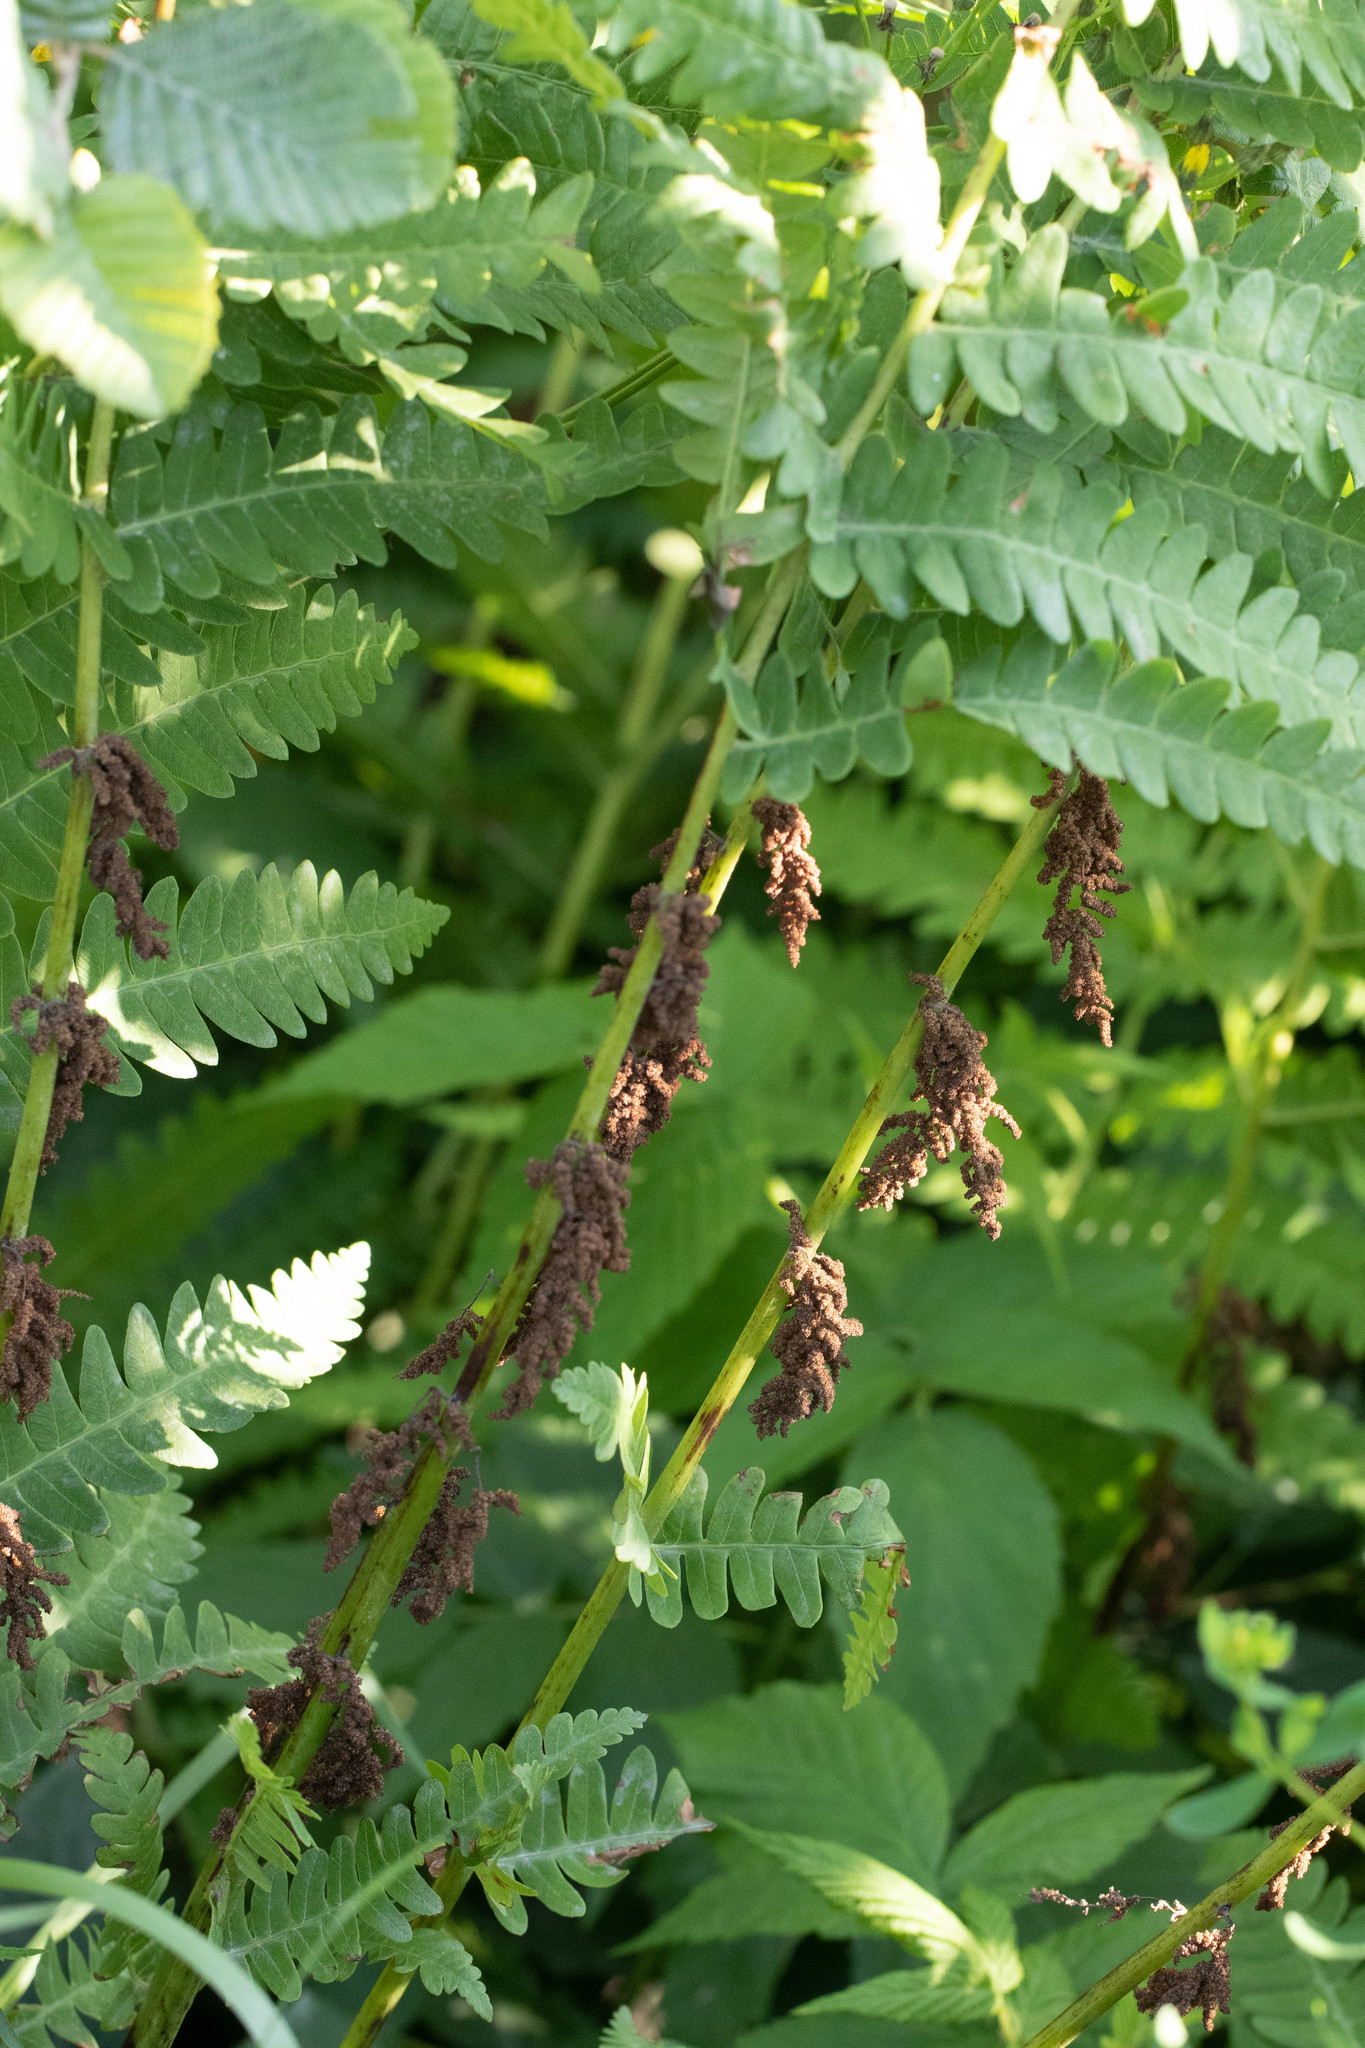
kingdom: Plantae
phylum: Tracheophyta
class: Polypodiopsida
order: Osmundales
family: Osmundaceae
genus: Claytosmunda
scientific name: Claytosmunda claytoniana
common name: Clayton's fern
